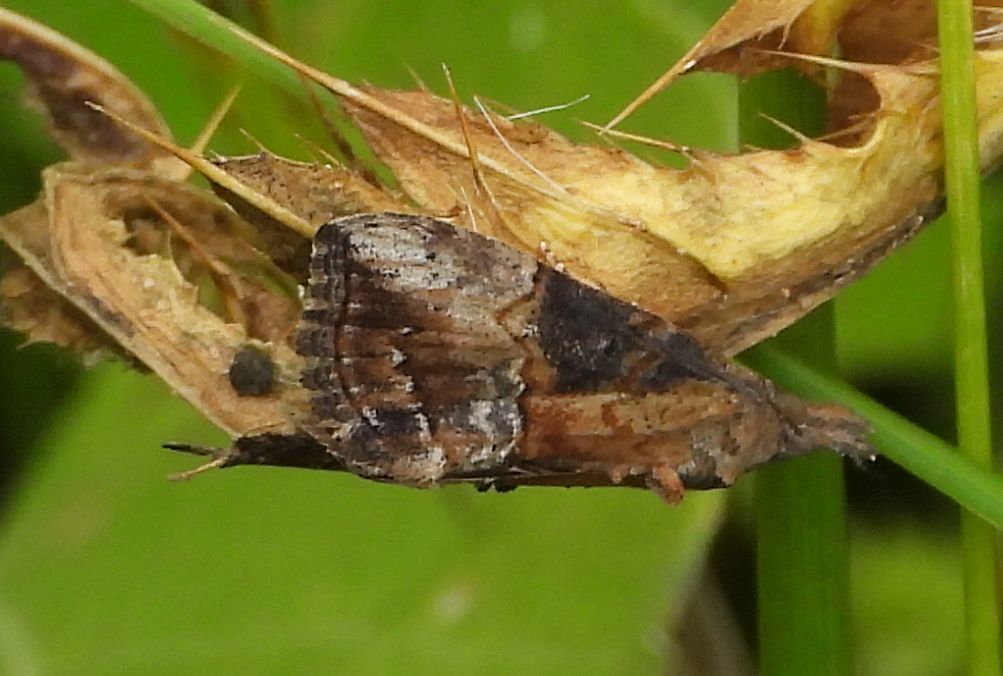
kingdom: Animalia
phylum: Arthropoda
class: Insecta
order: Lepidoptera
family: Erebidae
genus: Hypena
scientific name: Hypena scabra
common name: Green cloverworm
